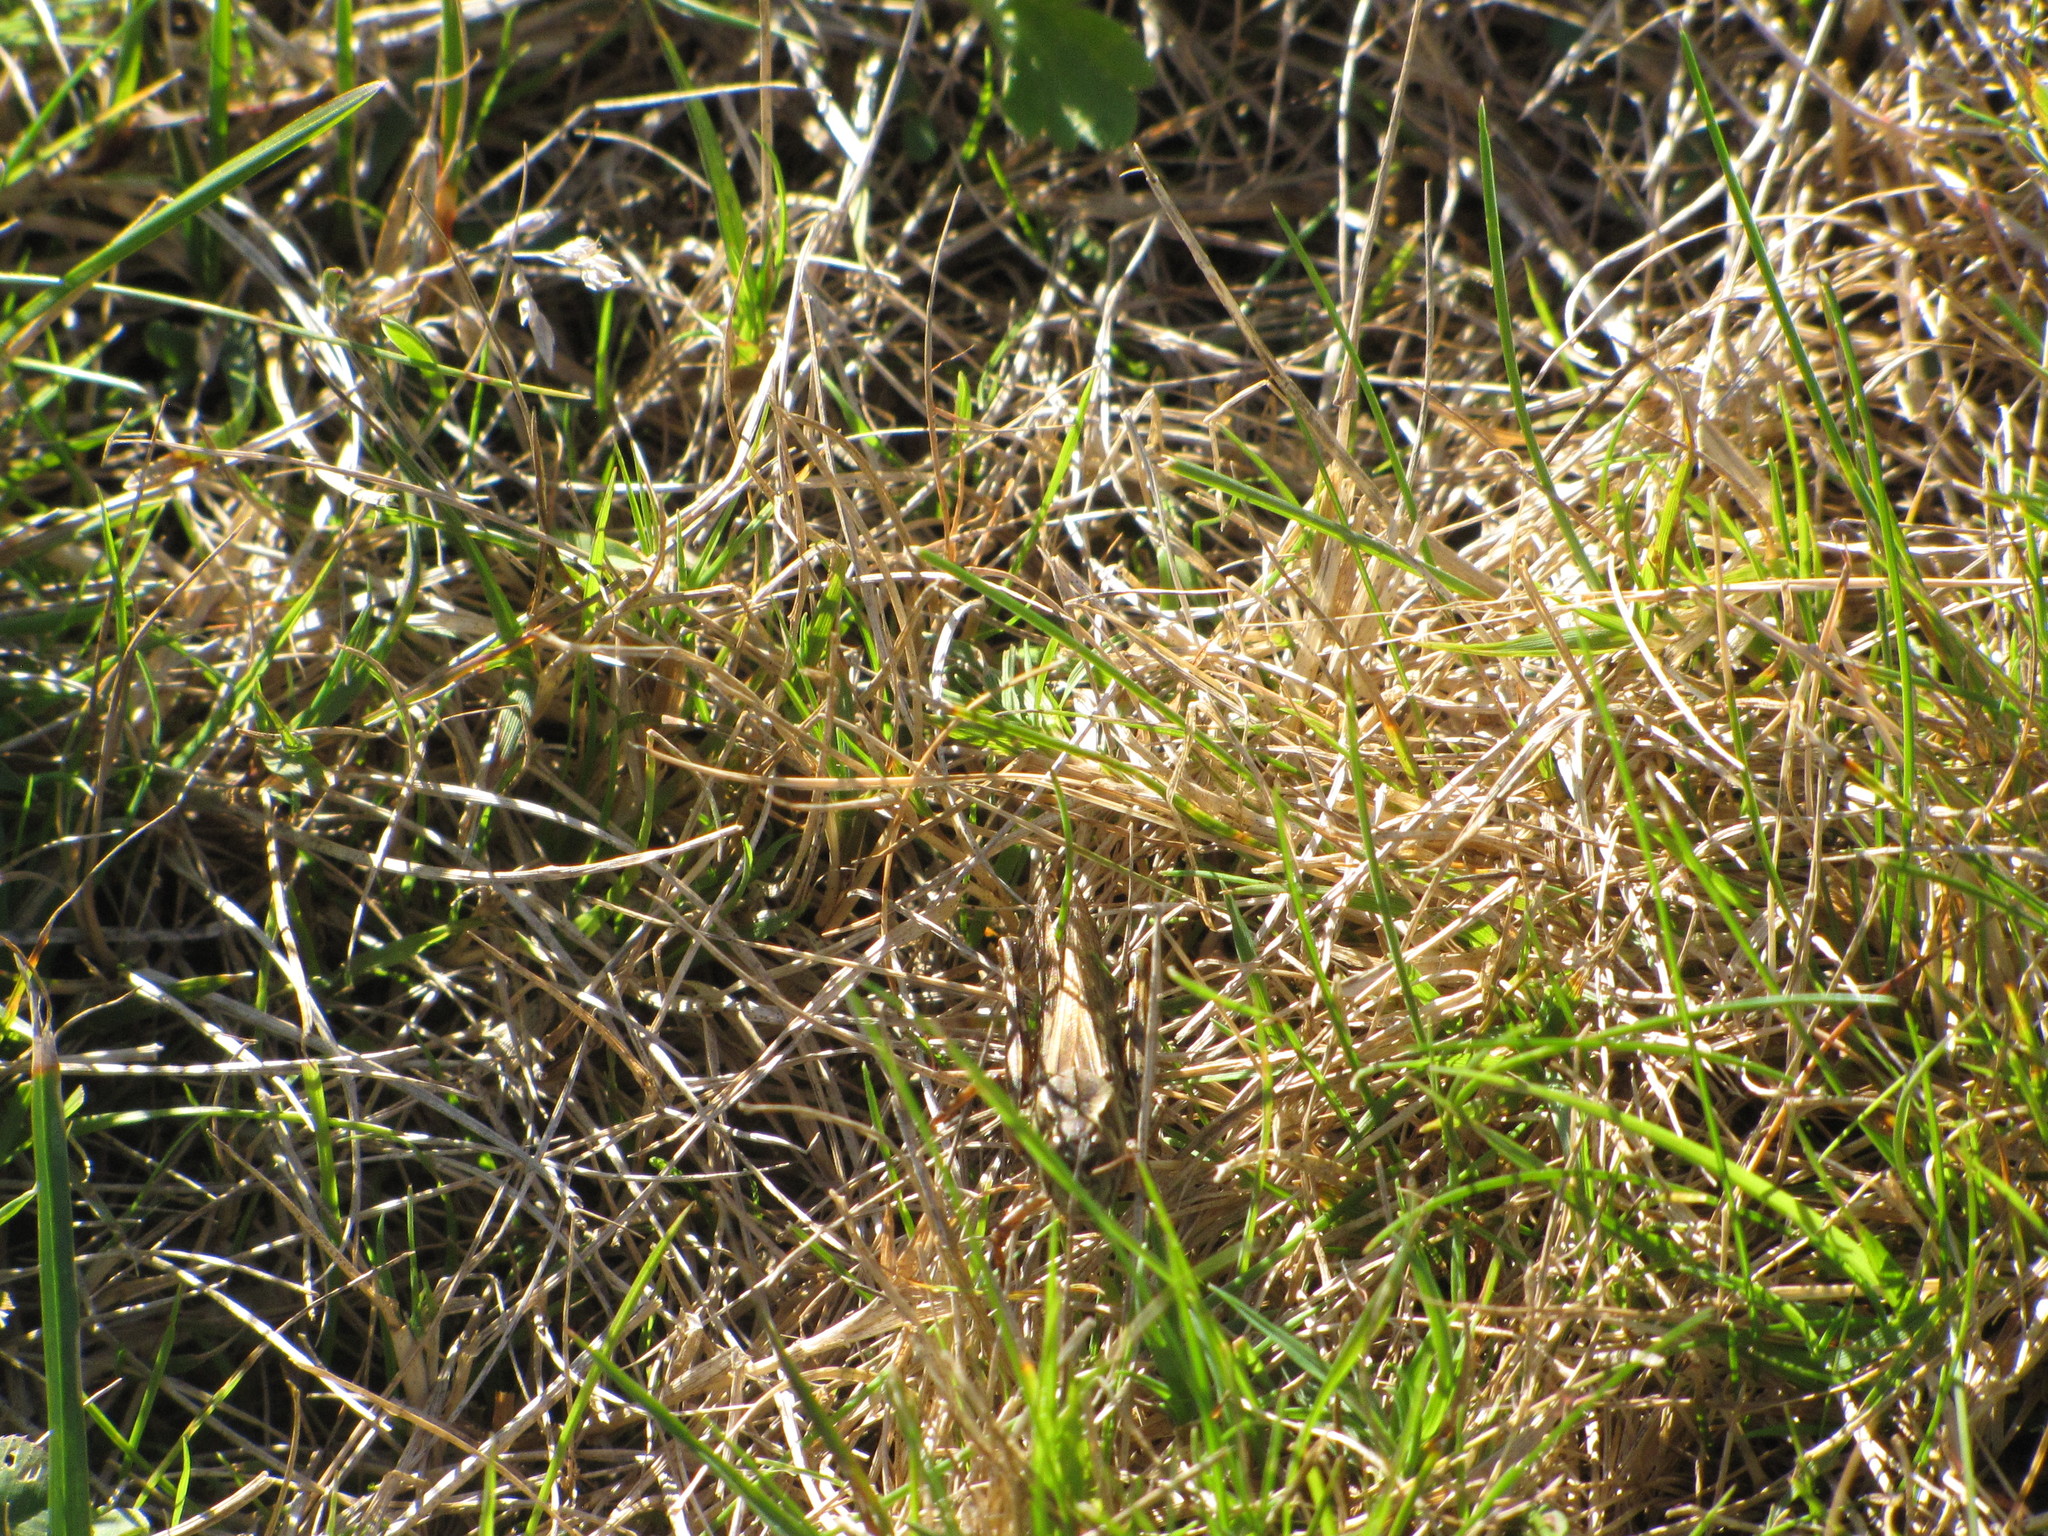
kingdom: Animalia
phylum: Arthropoda
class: Insecta
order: Orthoptera
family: Acrididae
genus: Camnula
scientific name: Camnula pellucida
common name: Clear-winged grasshopper
